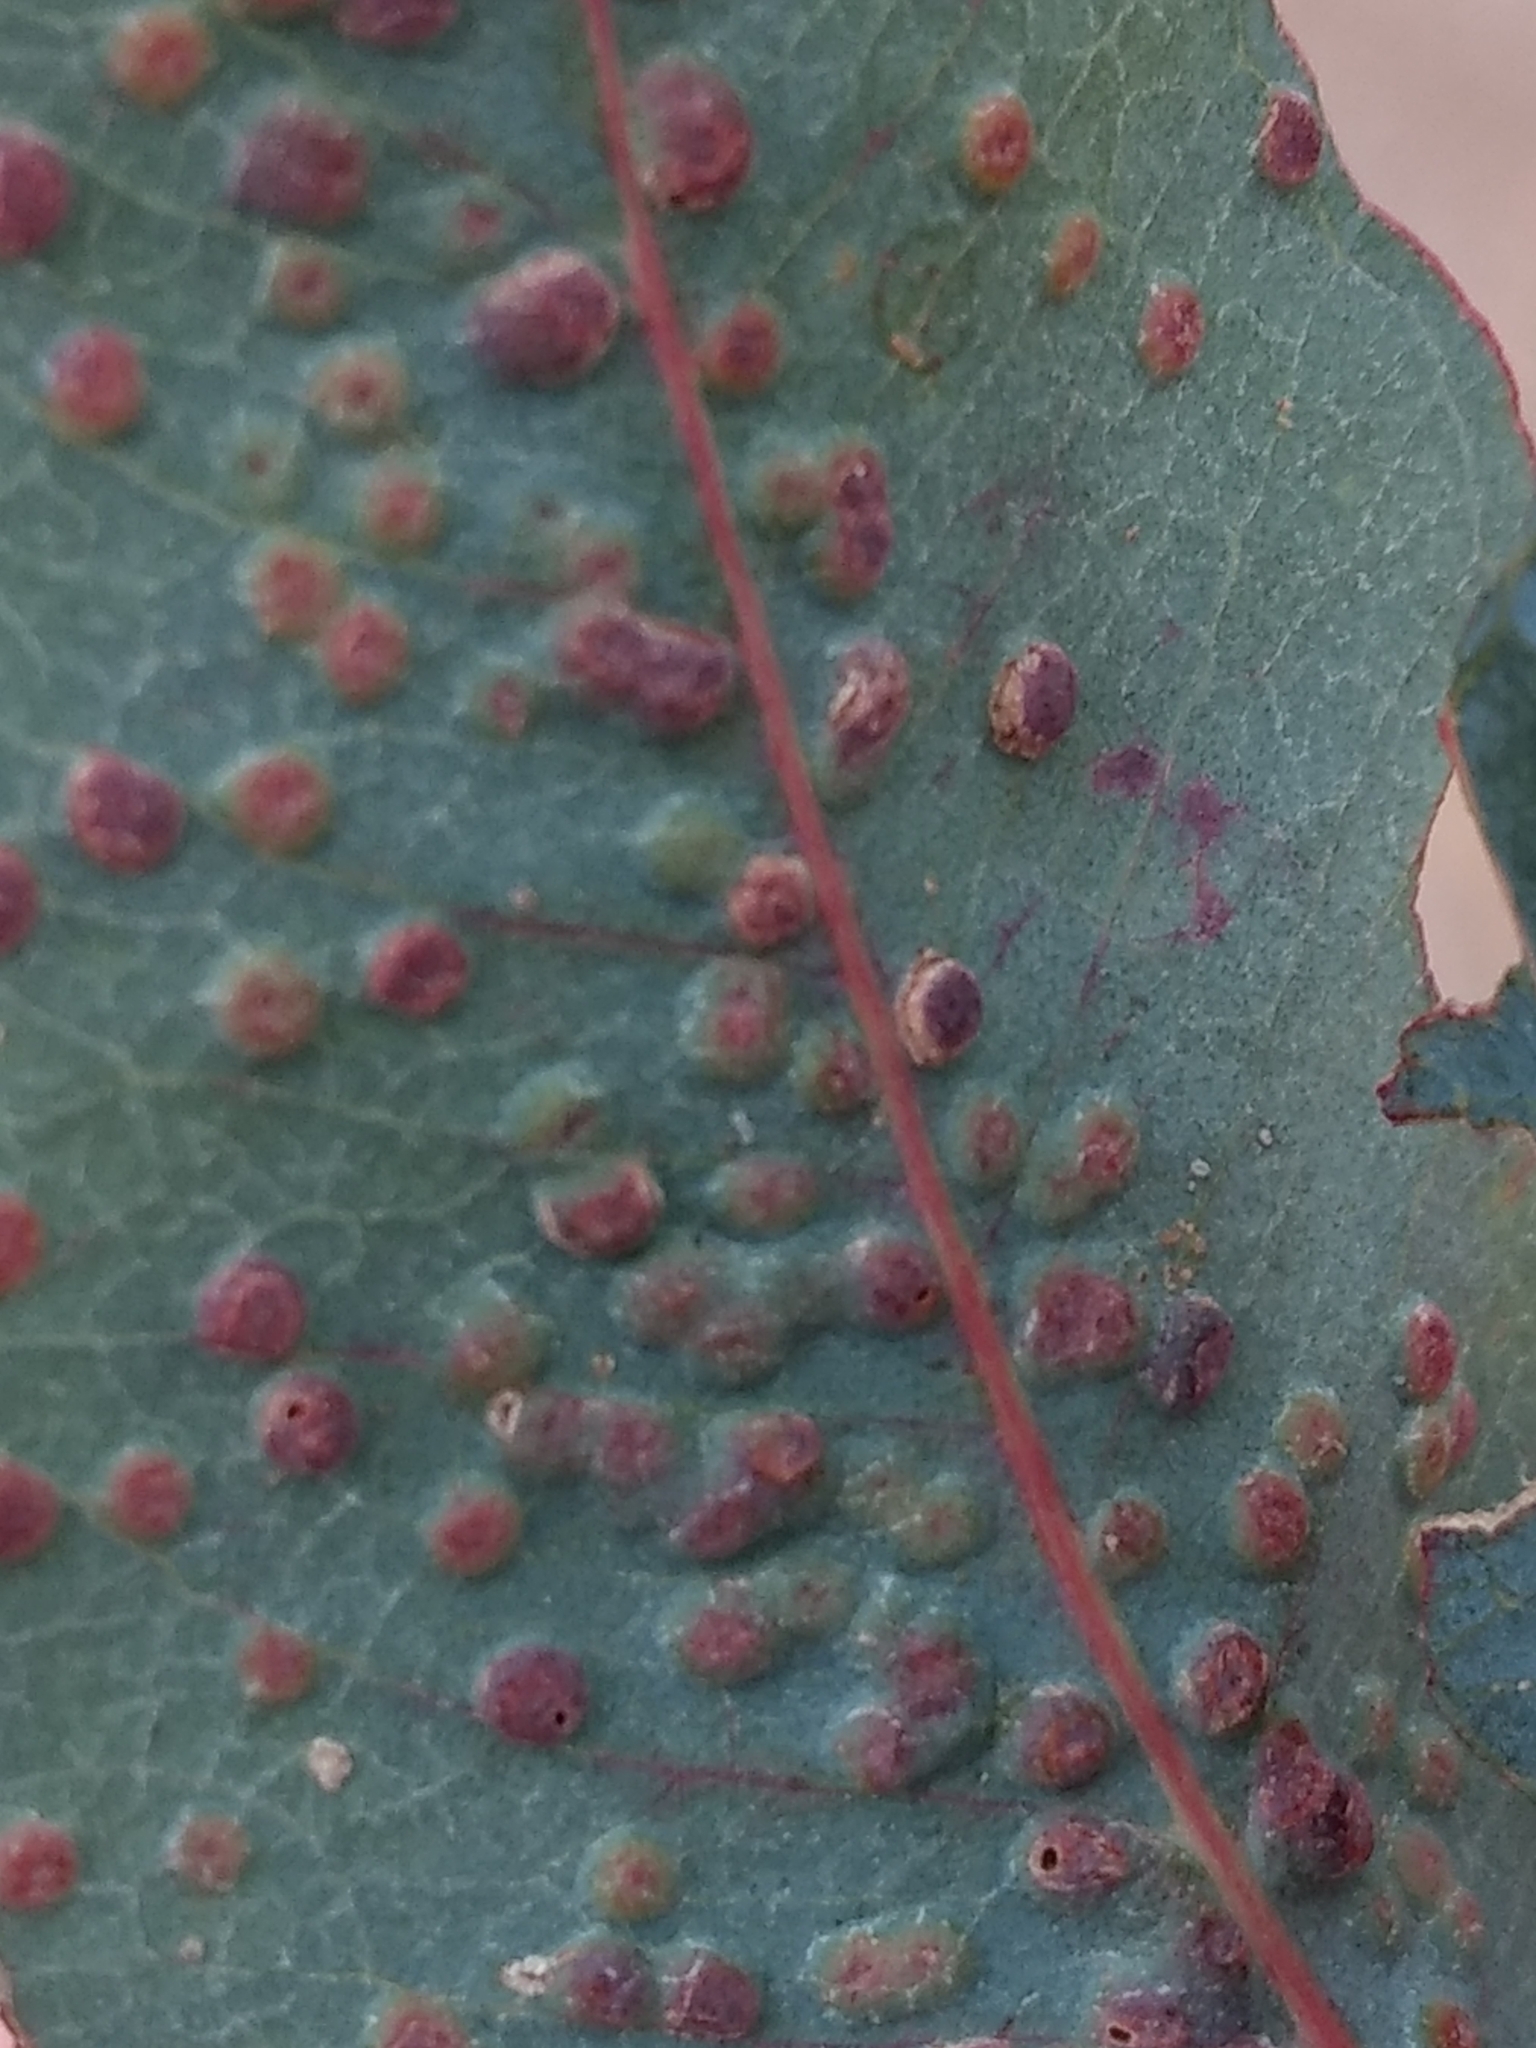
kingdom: Animalia
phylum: Arthropoda
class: Insecta
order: Hymenoptera
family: Eulophidae
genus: Ophelimus
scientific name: Ophelimus maskelli
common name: Gall wasp
